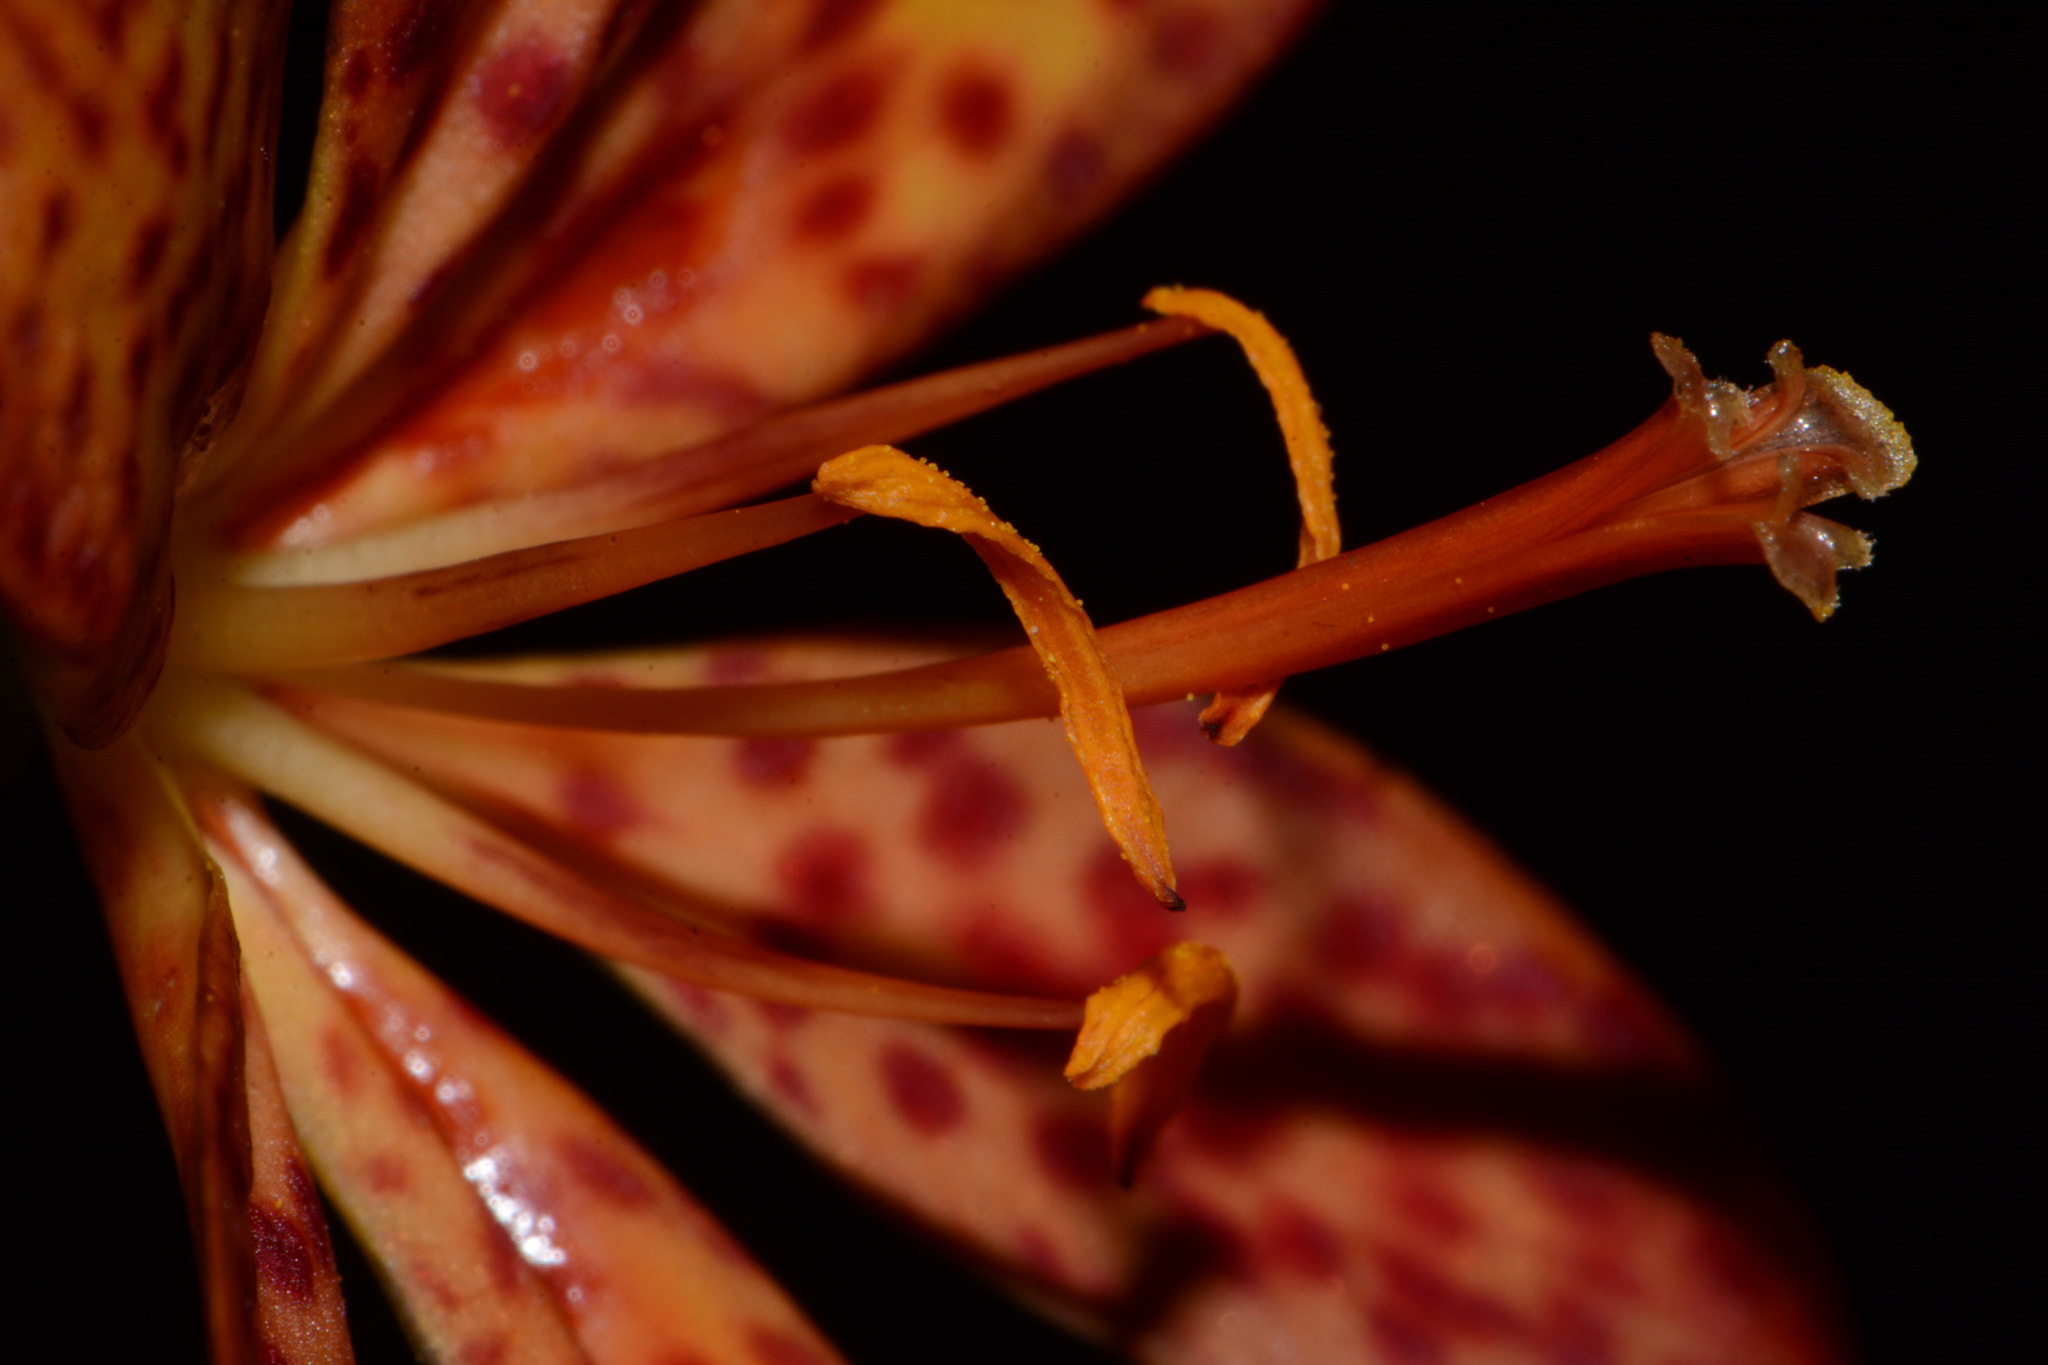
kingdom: Plantae
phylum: Tracheophyta
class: Liliopsida
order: Asparagales
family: Iridaceae
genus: Iris
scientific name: Iris domestica
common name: Belamcanda
